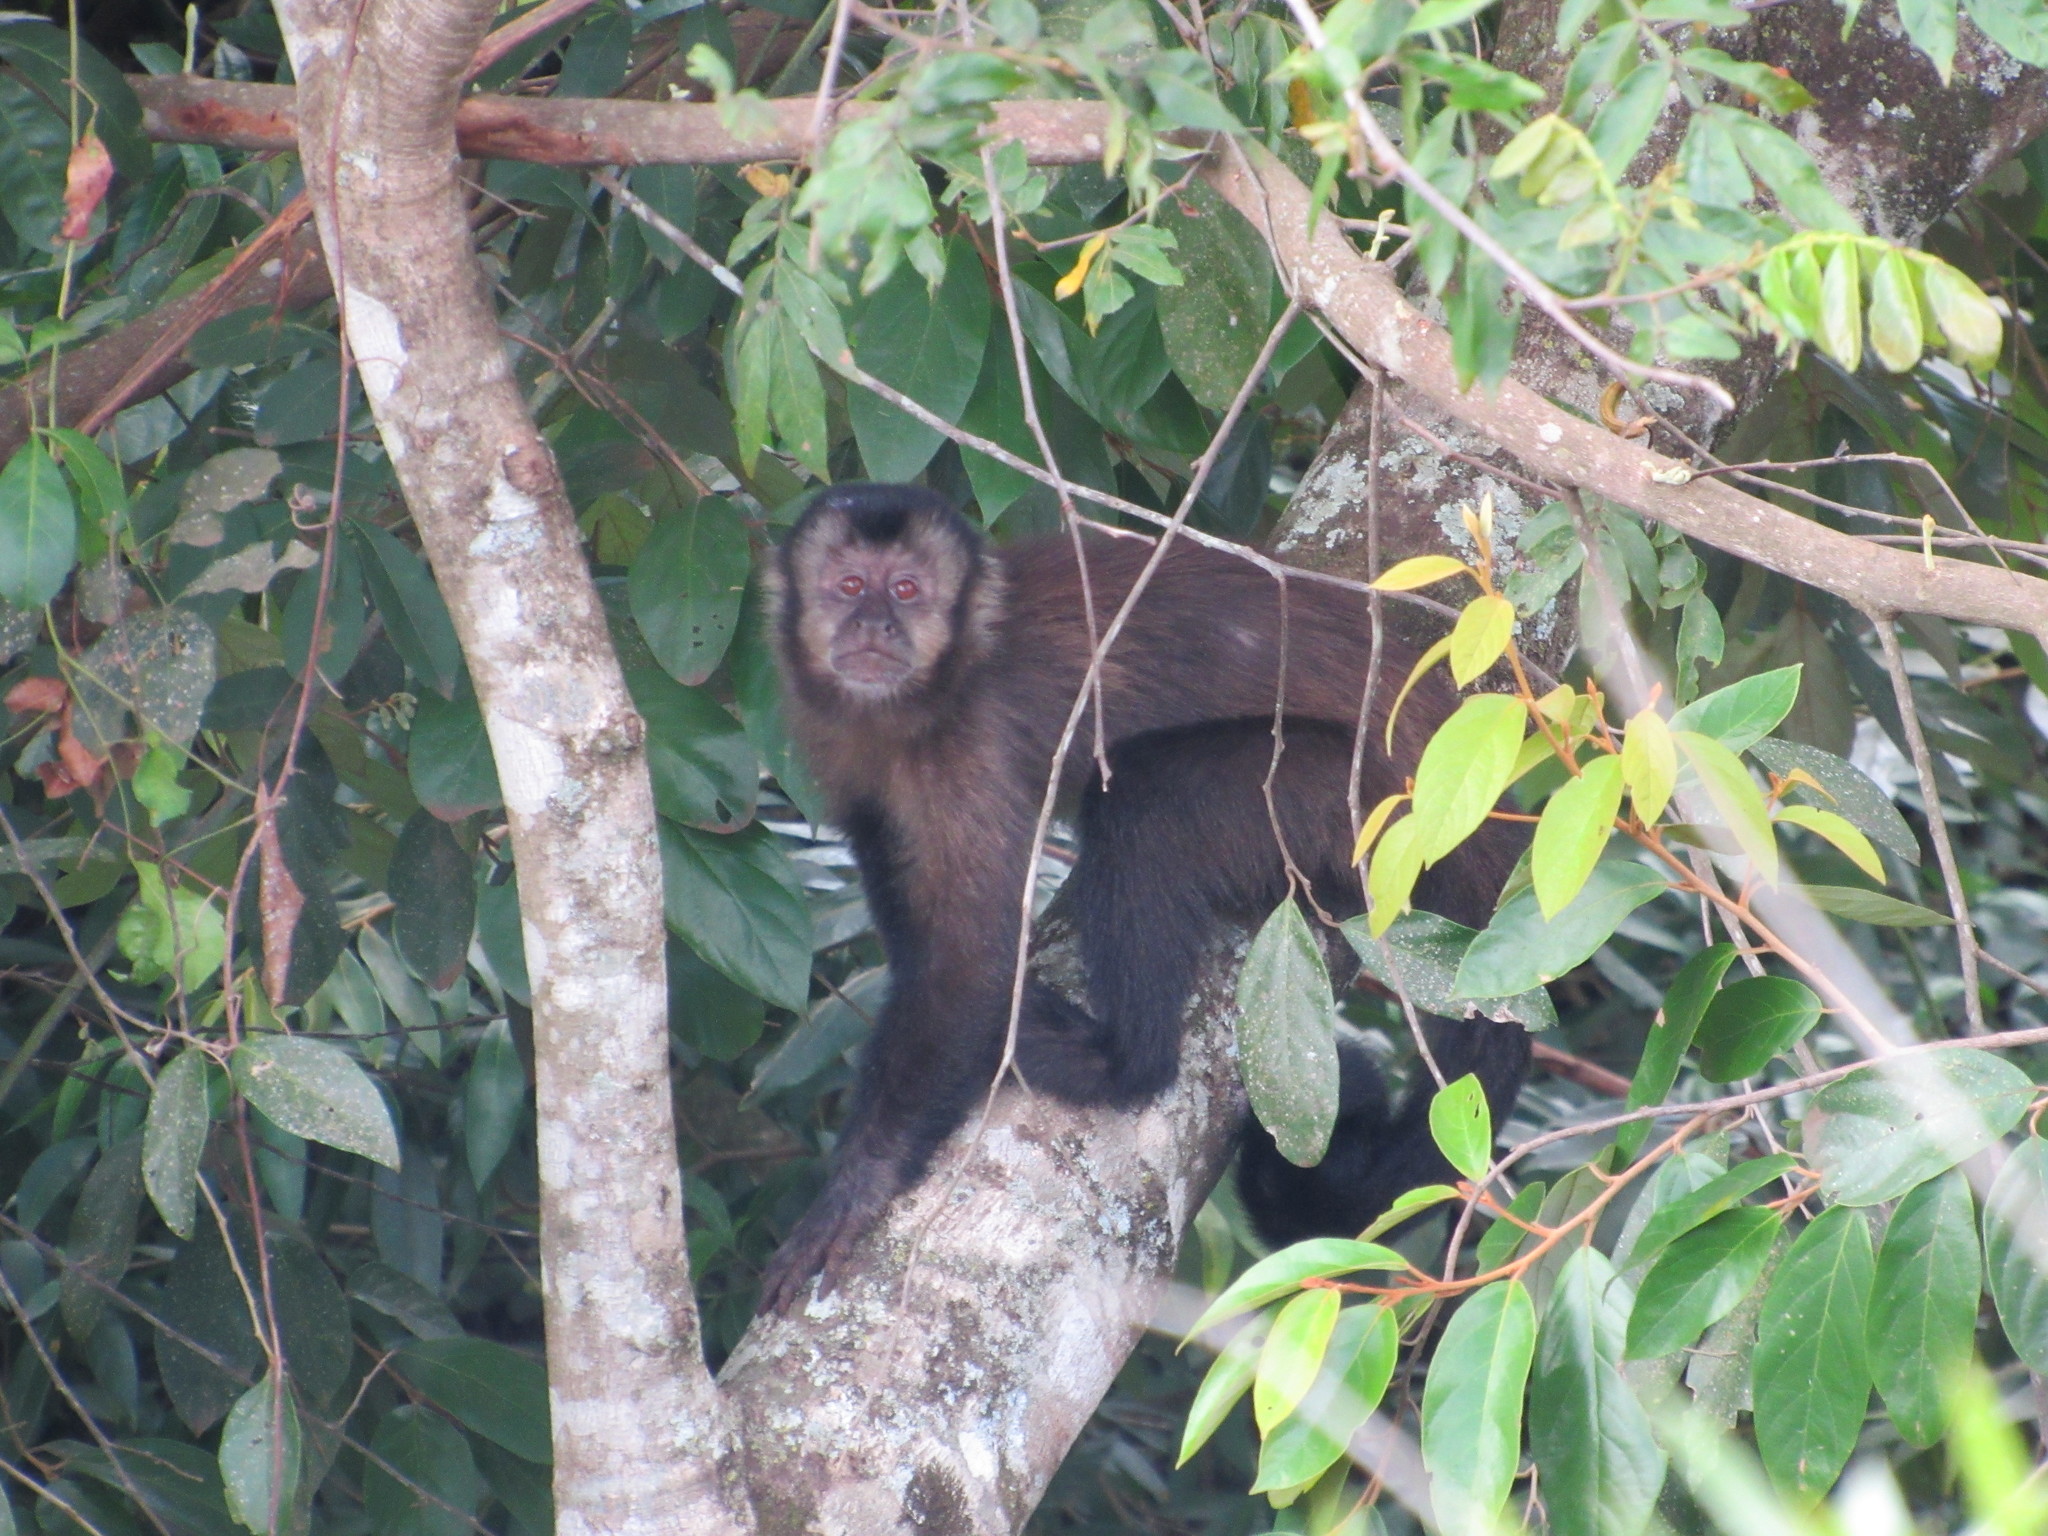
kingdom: Animalia
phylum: Chordata
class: Mammalia
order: Primates
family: Cebidae
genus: Sapajus
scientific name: Sapajus nigritus
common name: Black capuchin
